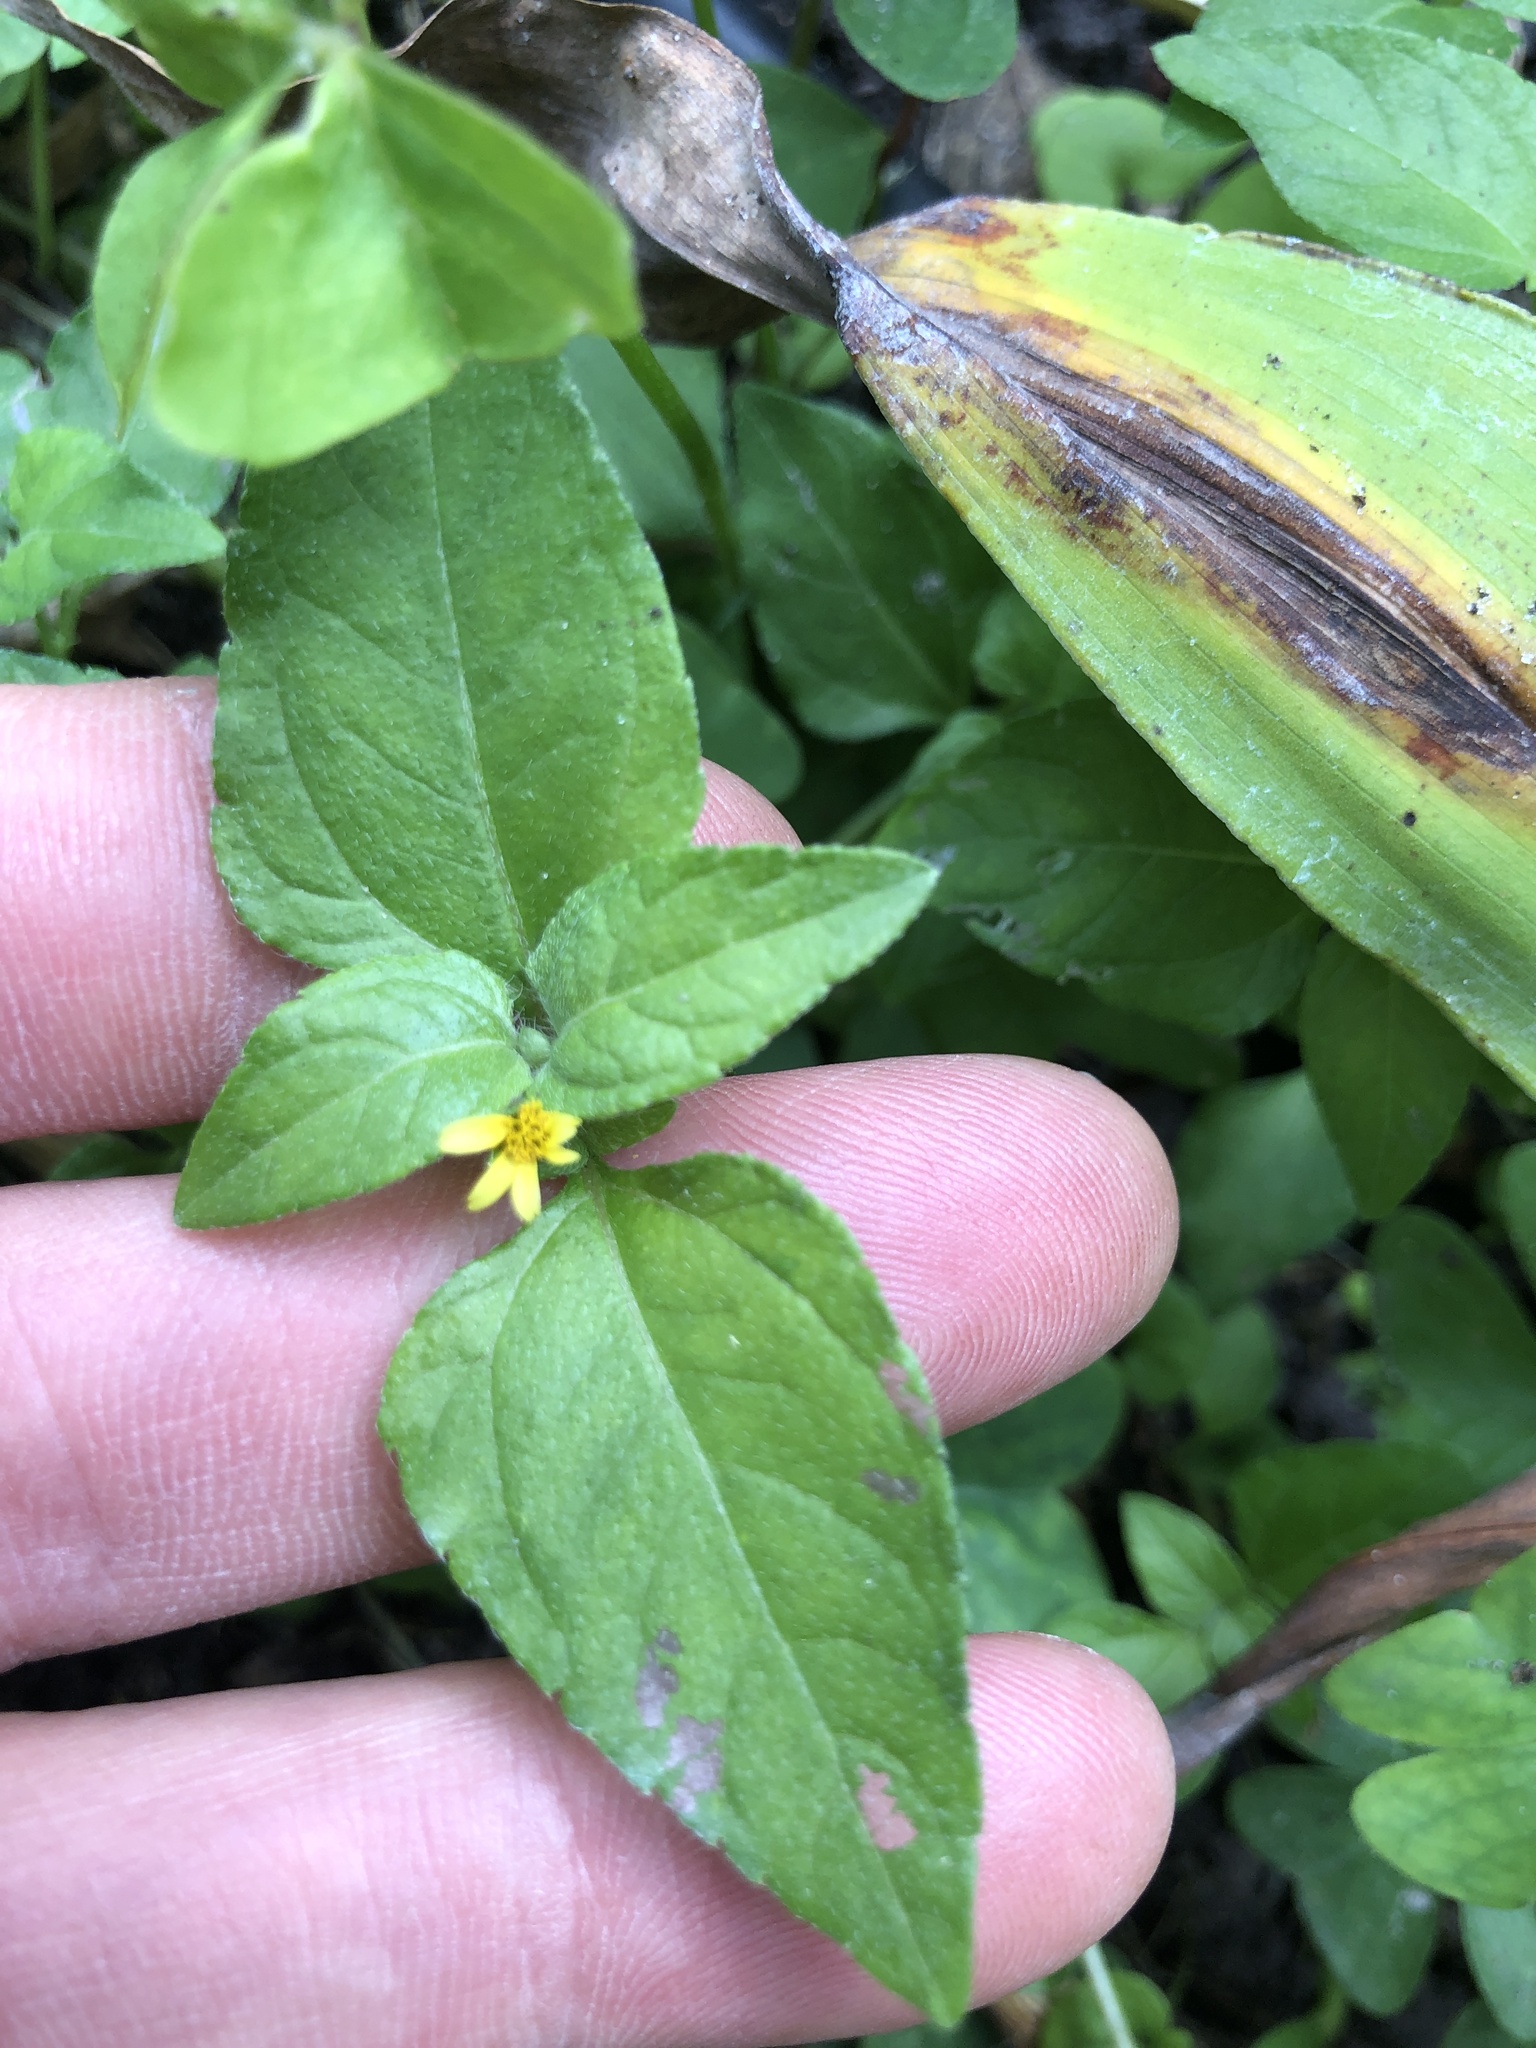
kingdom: Plantae
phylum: Tracheophyta
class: Magnoliopsida
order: Asterales
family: Asteraceae
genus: Calyptocarpus
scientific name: Calyptocarpus vialis
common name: Straggler daisy
